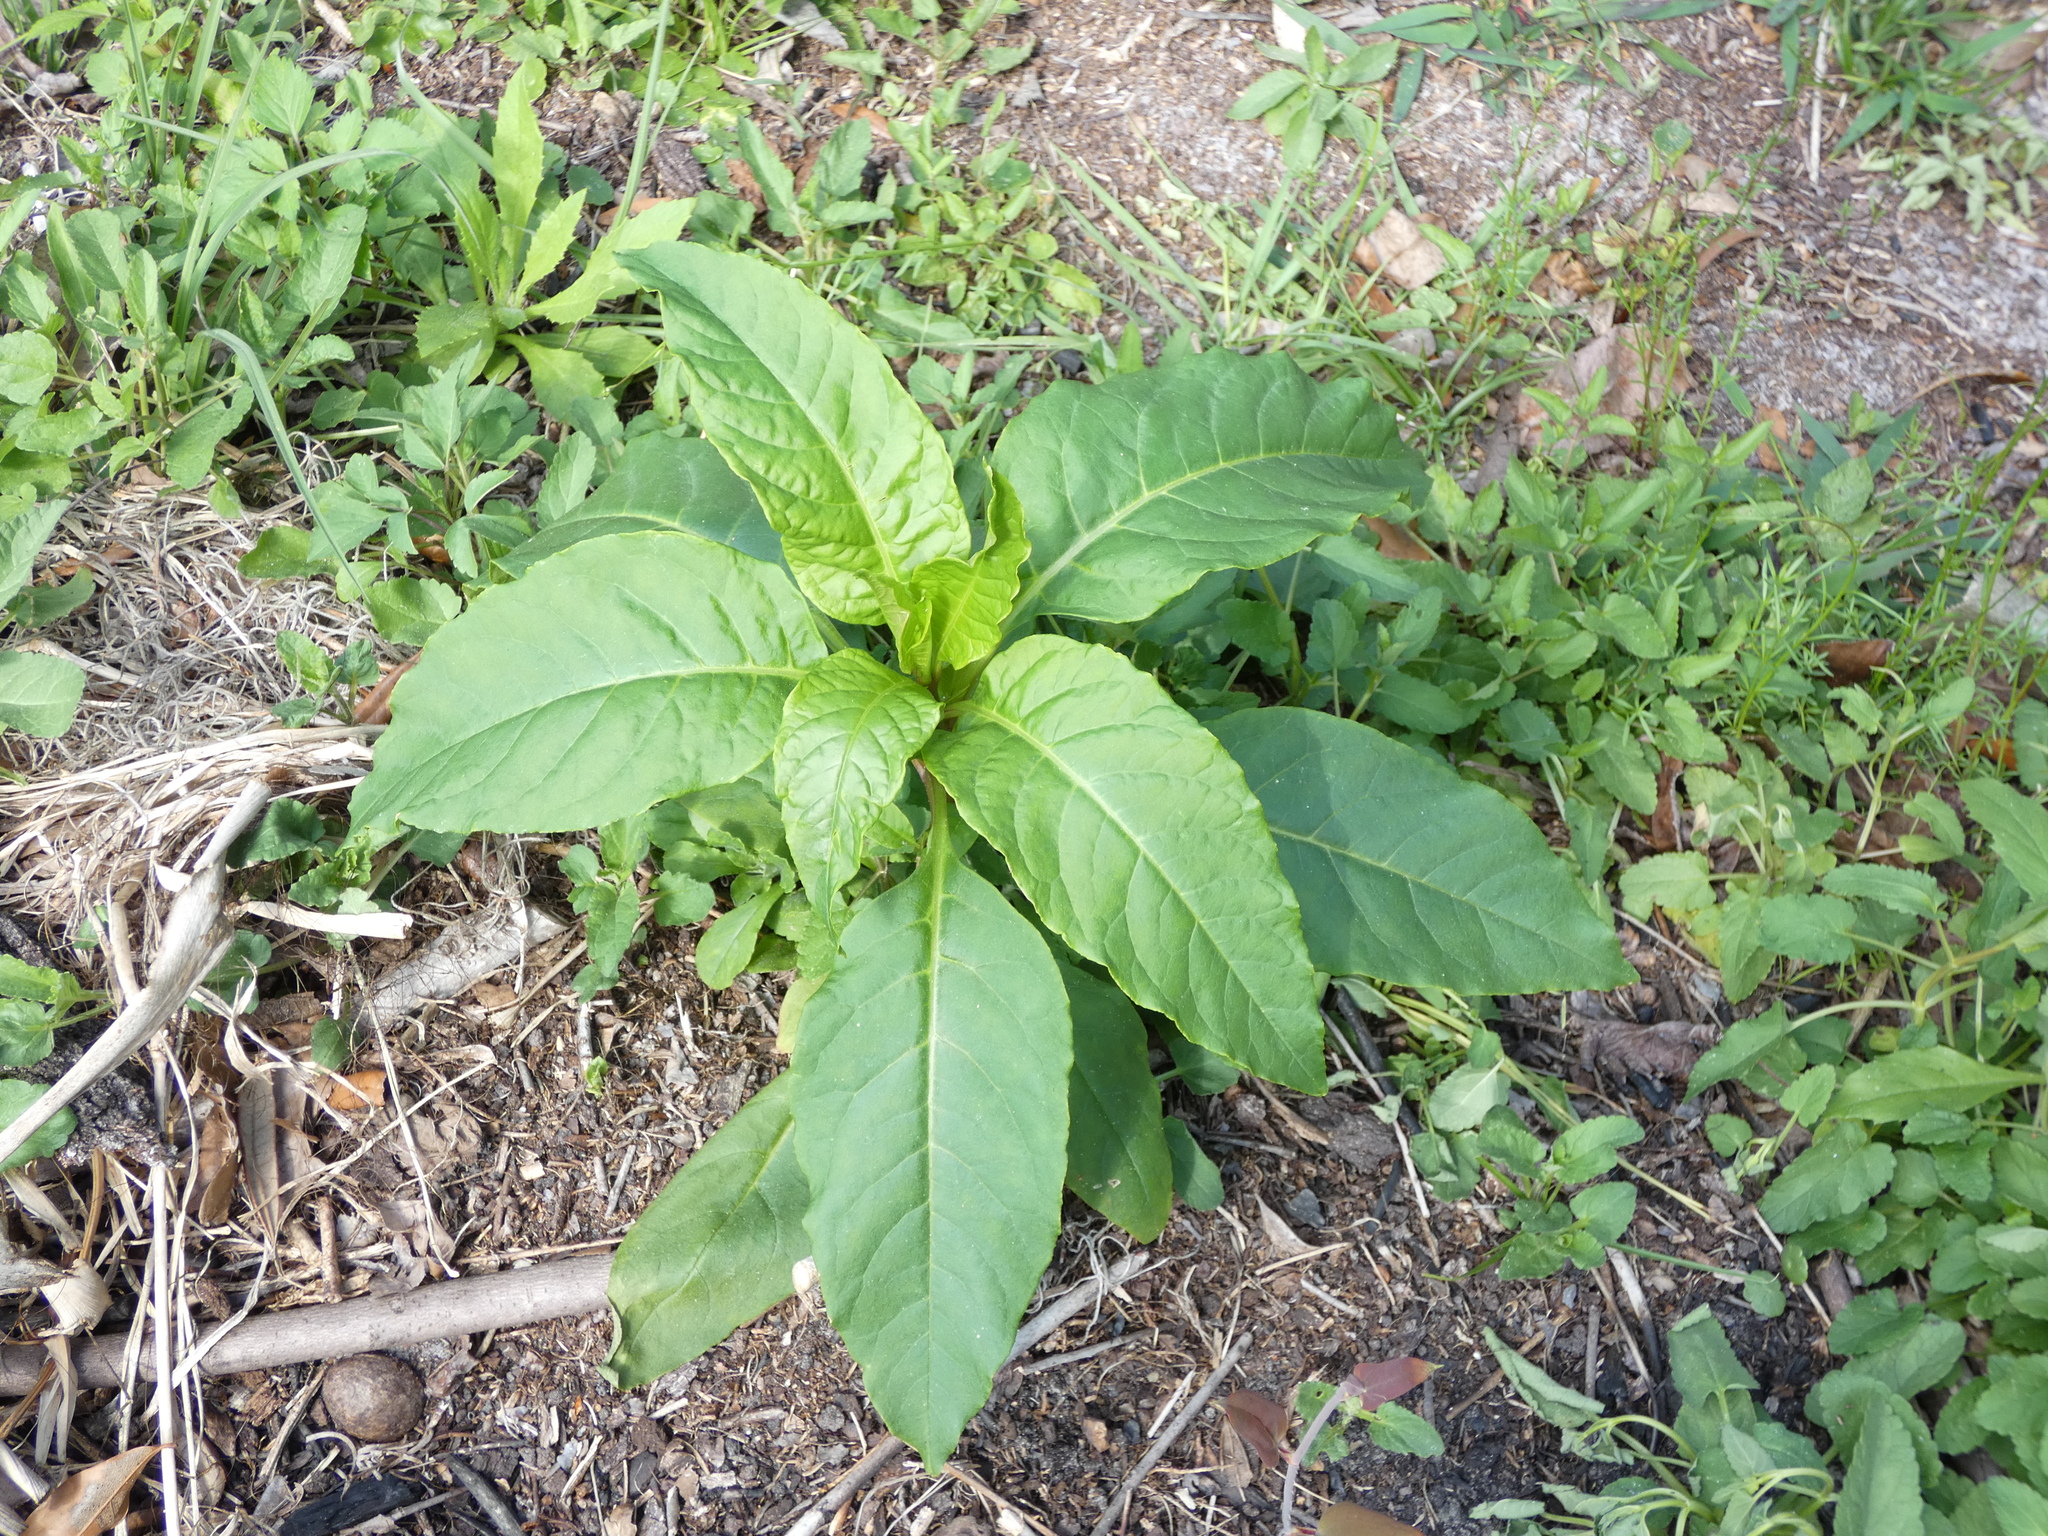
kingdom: Plantae
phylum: Tracheophyta
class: Magnoliopsida
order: Caryophyllales
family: Phytolaccaceae
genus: Phytolacca
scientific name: Phytolacca americana
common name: American pokeweed
